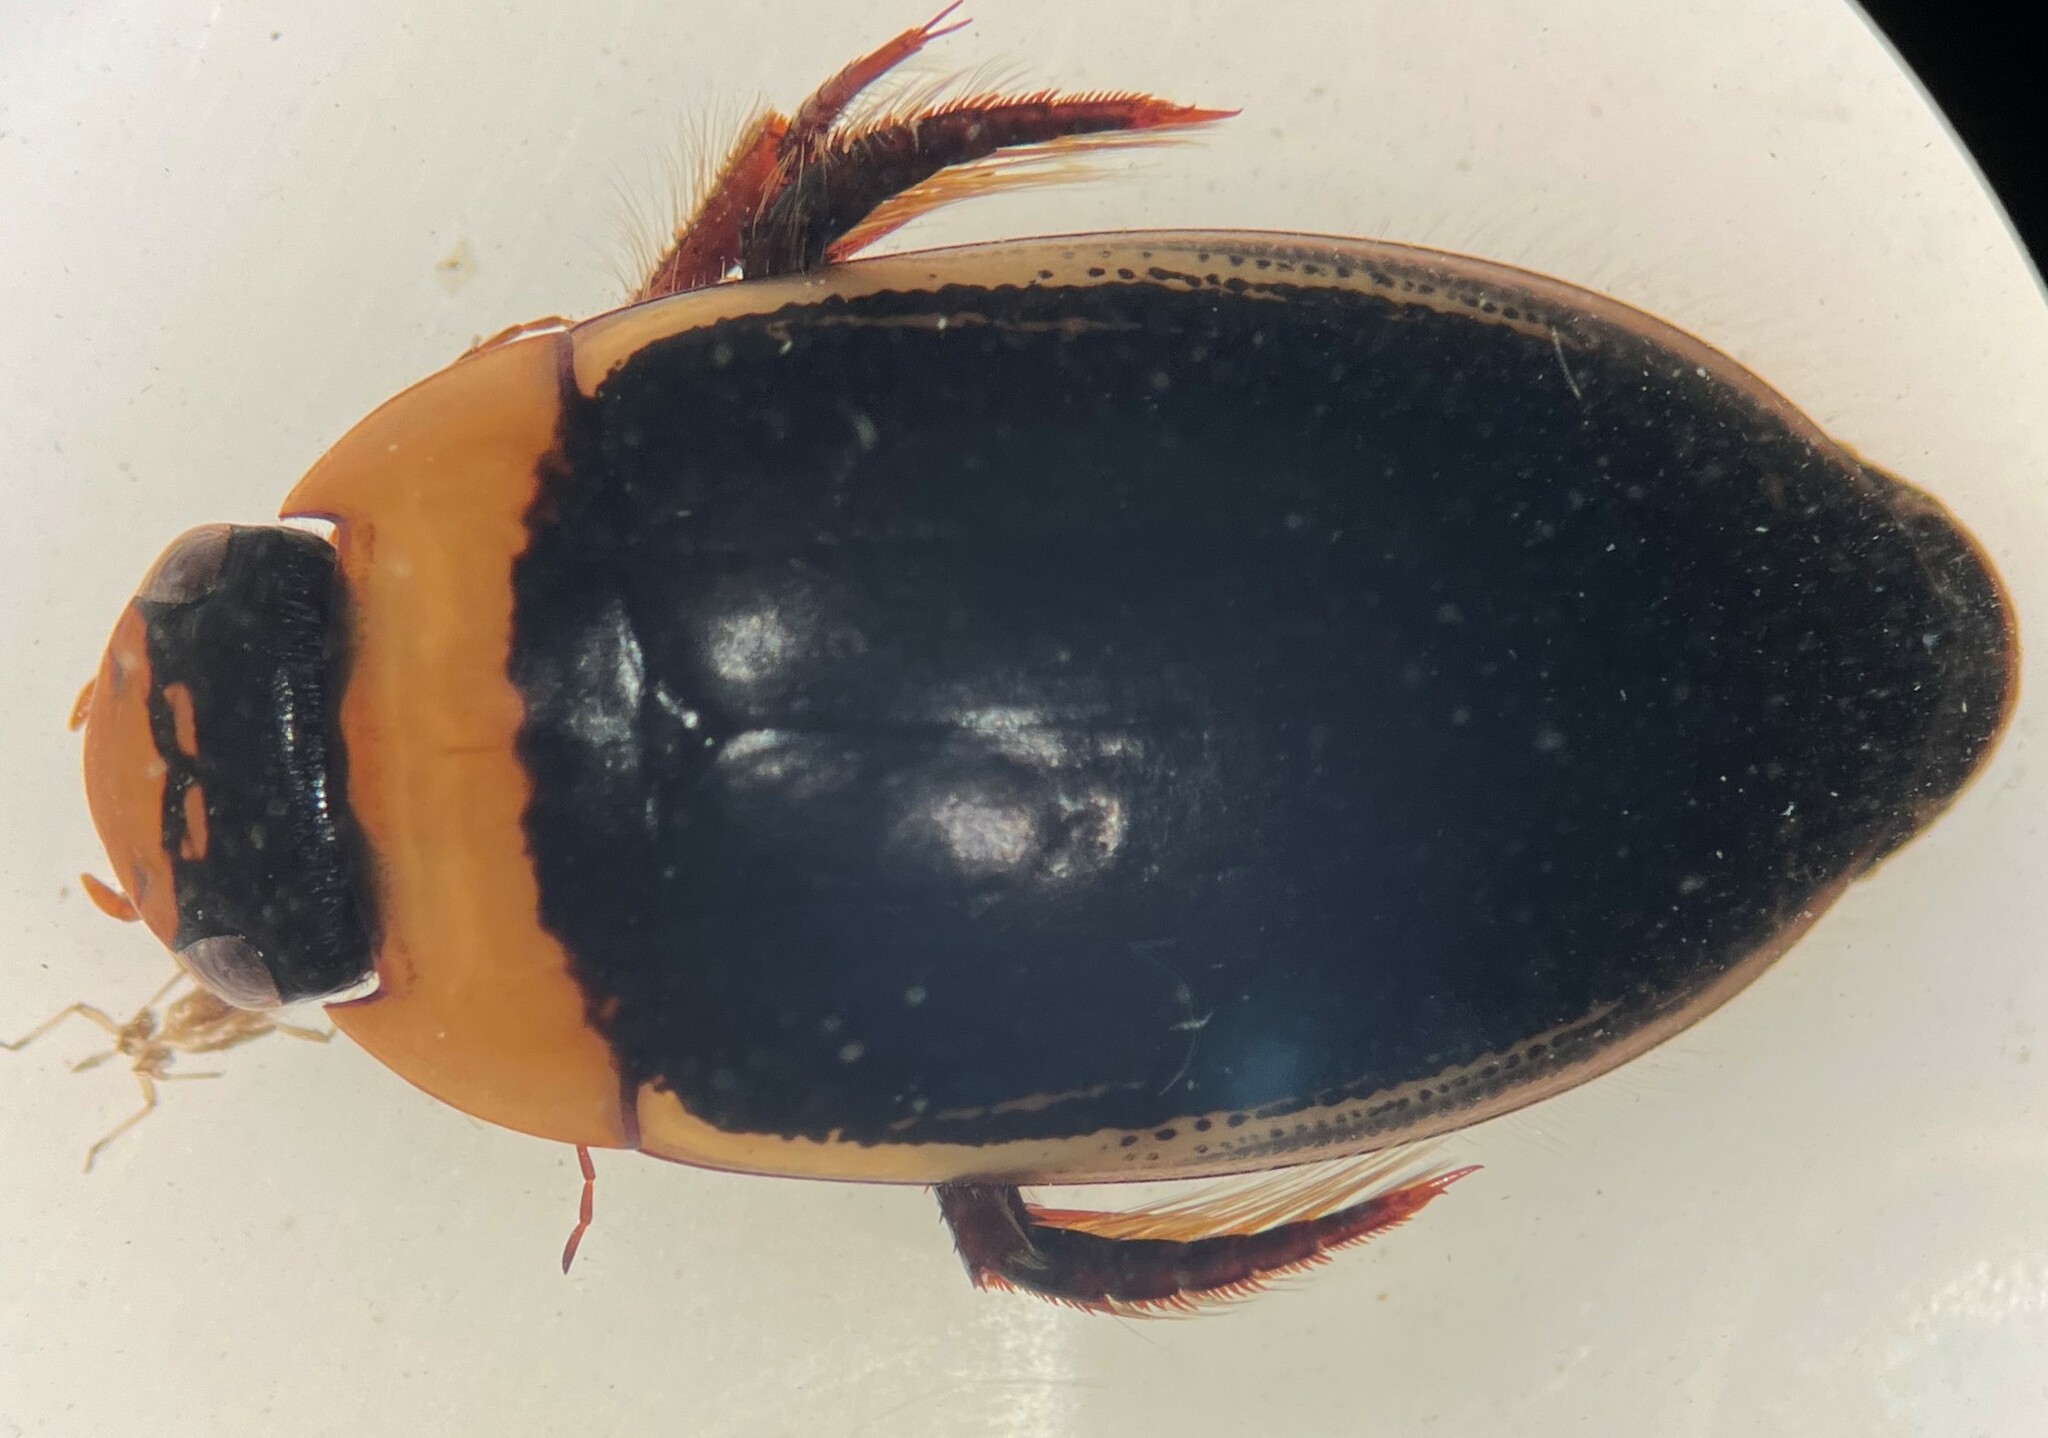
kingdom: Animalia
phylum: Arthropoda
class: Insecta
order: Coleoptera
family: Dytiscidae
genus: Hydaticus
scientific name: Hydaticus aruspex
